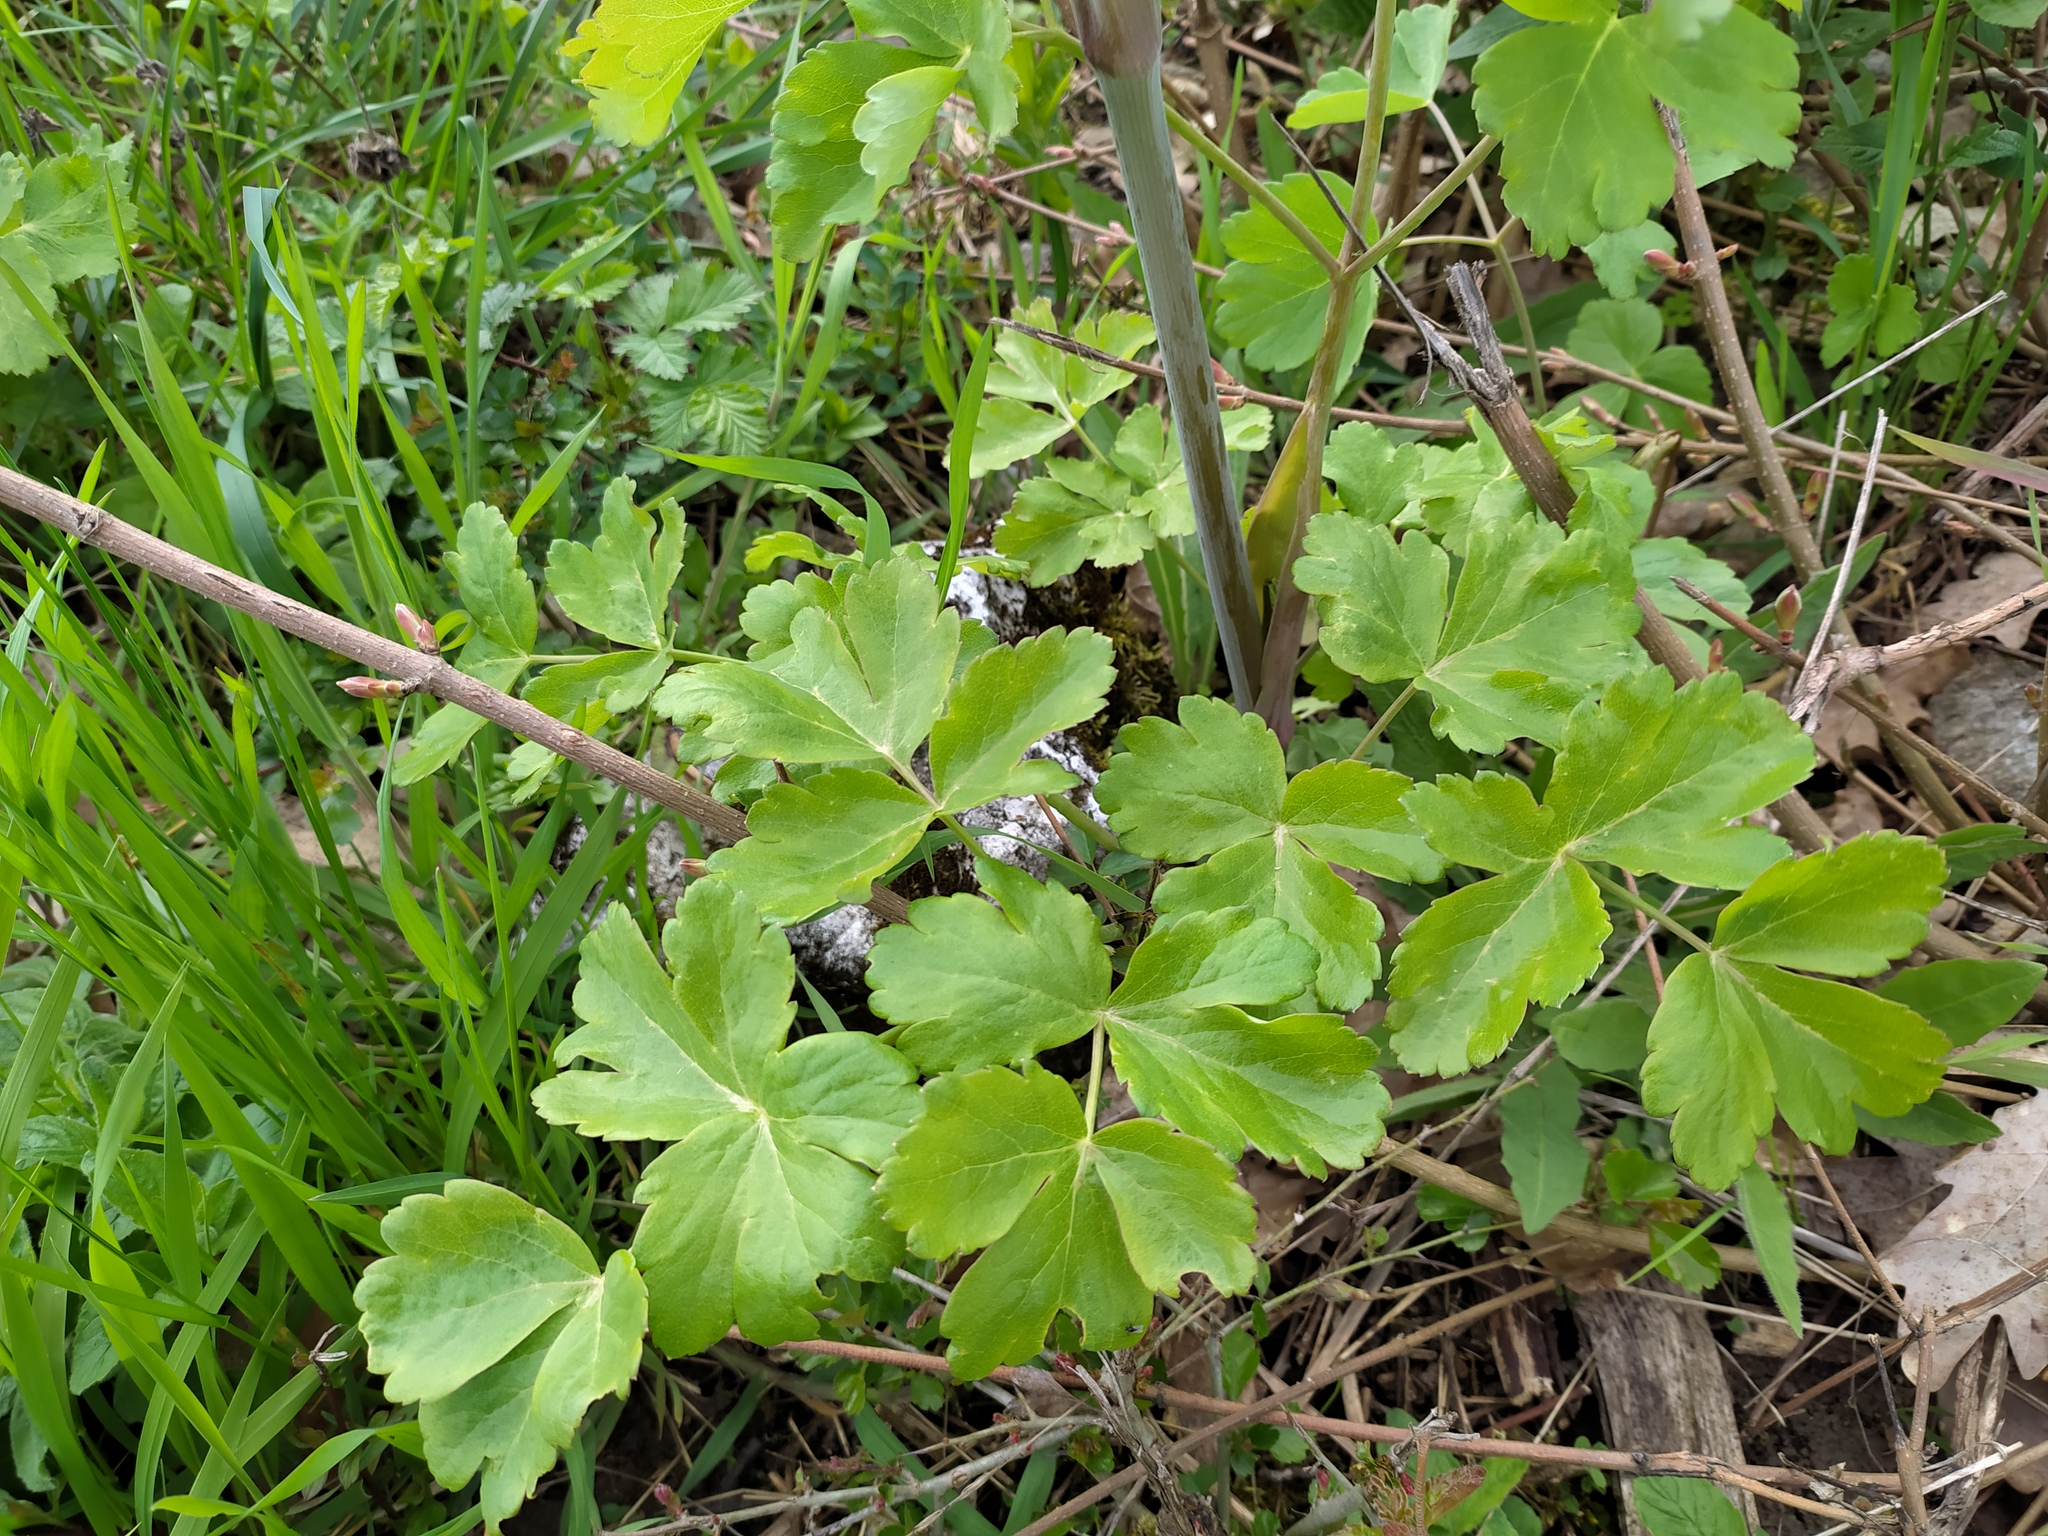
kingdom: Plantae
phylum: Tracheophyta
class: Magnoliopsida
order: Apiales
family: Apiaceae
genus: Laser
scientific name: Laser trilobum
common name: Laser
